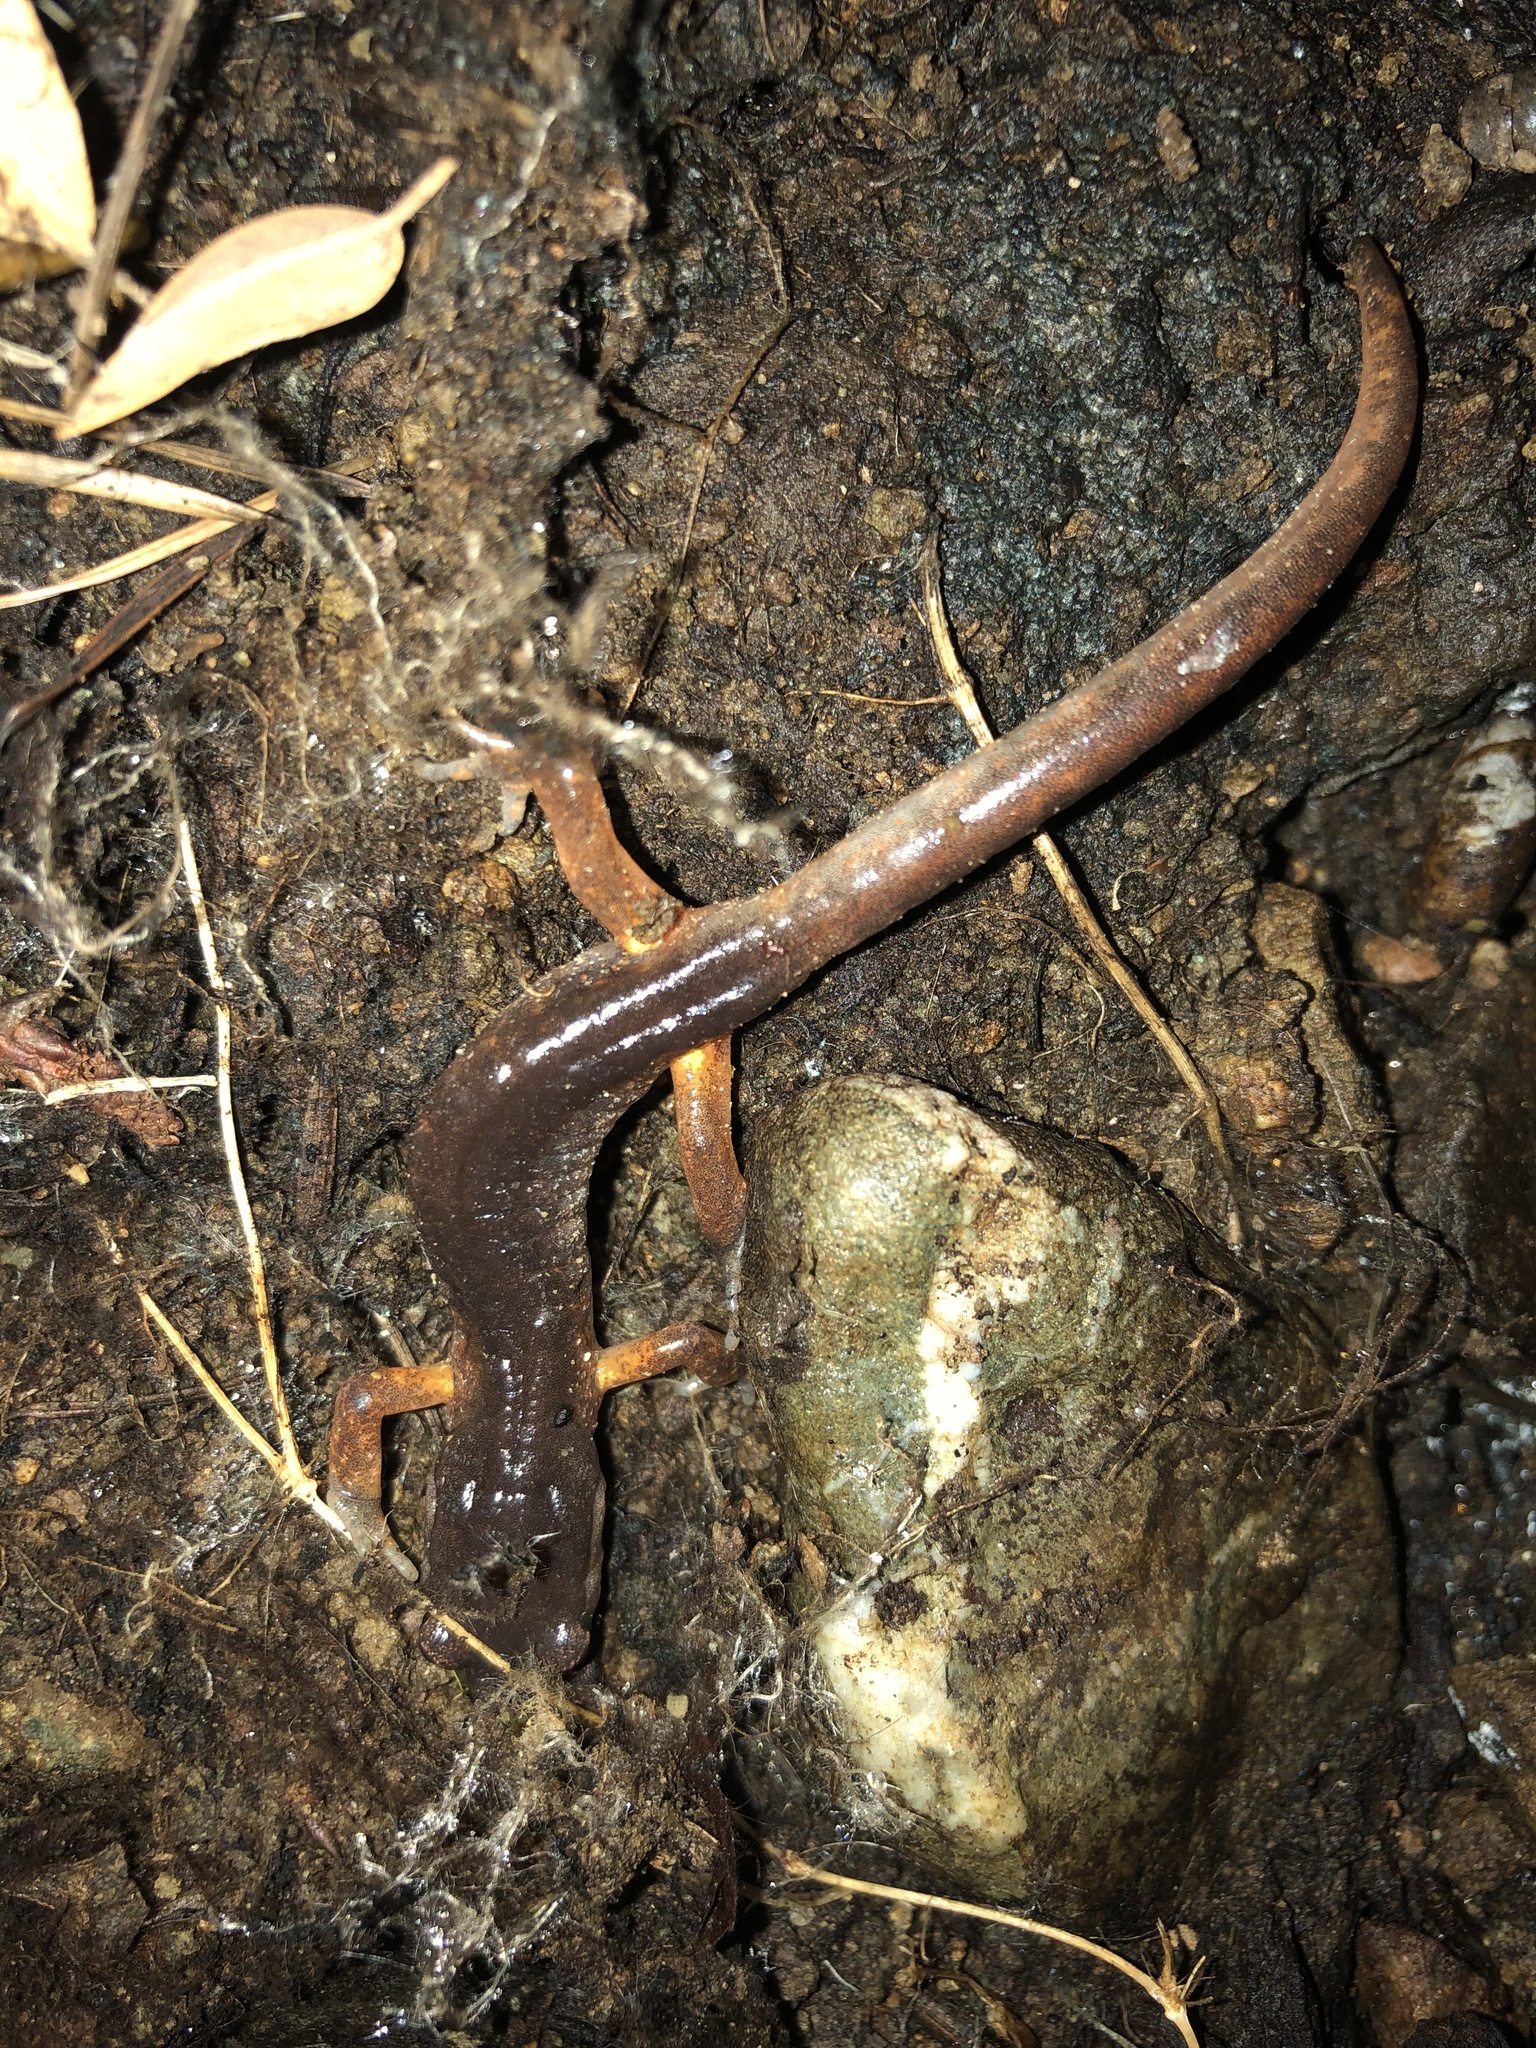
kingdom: Animalia
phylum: Chordata
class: Amphibia
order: Caudata
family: Plethodontidae
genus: Ensatina
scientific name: Ensatina eschscholtzii
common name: Ensatina
